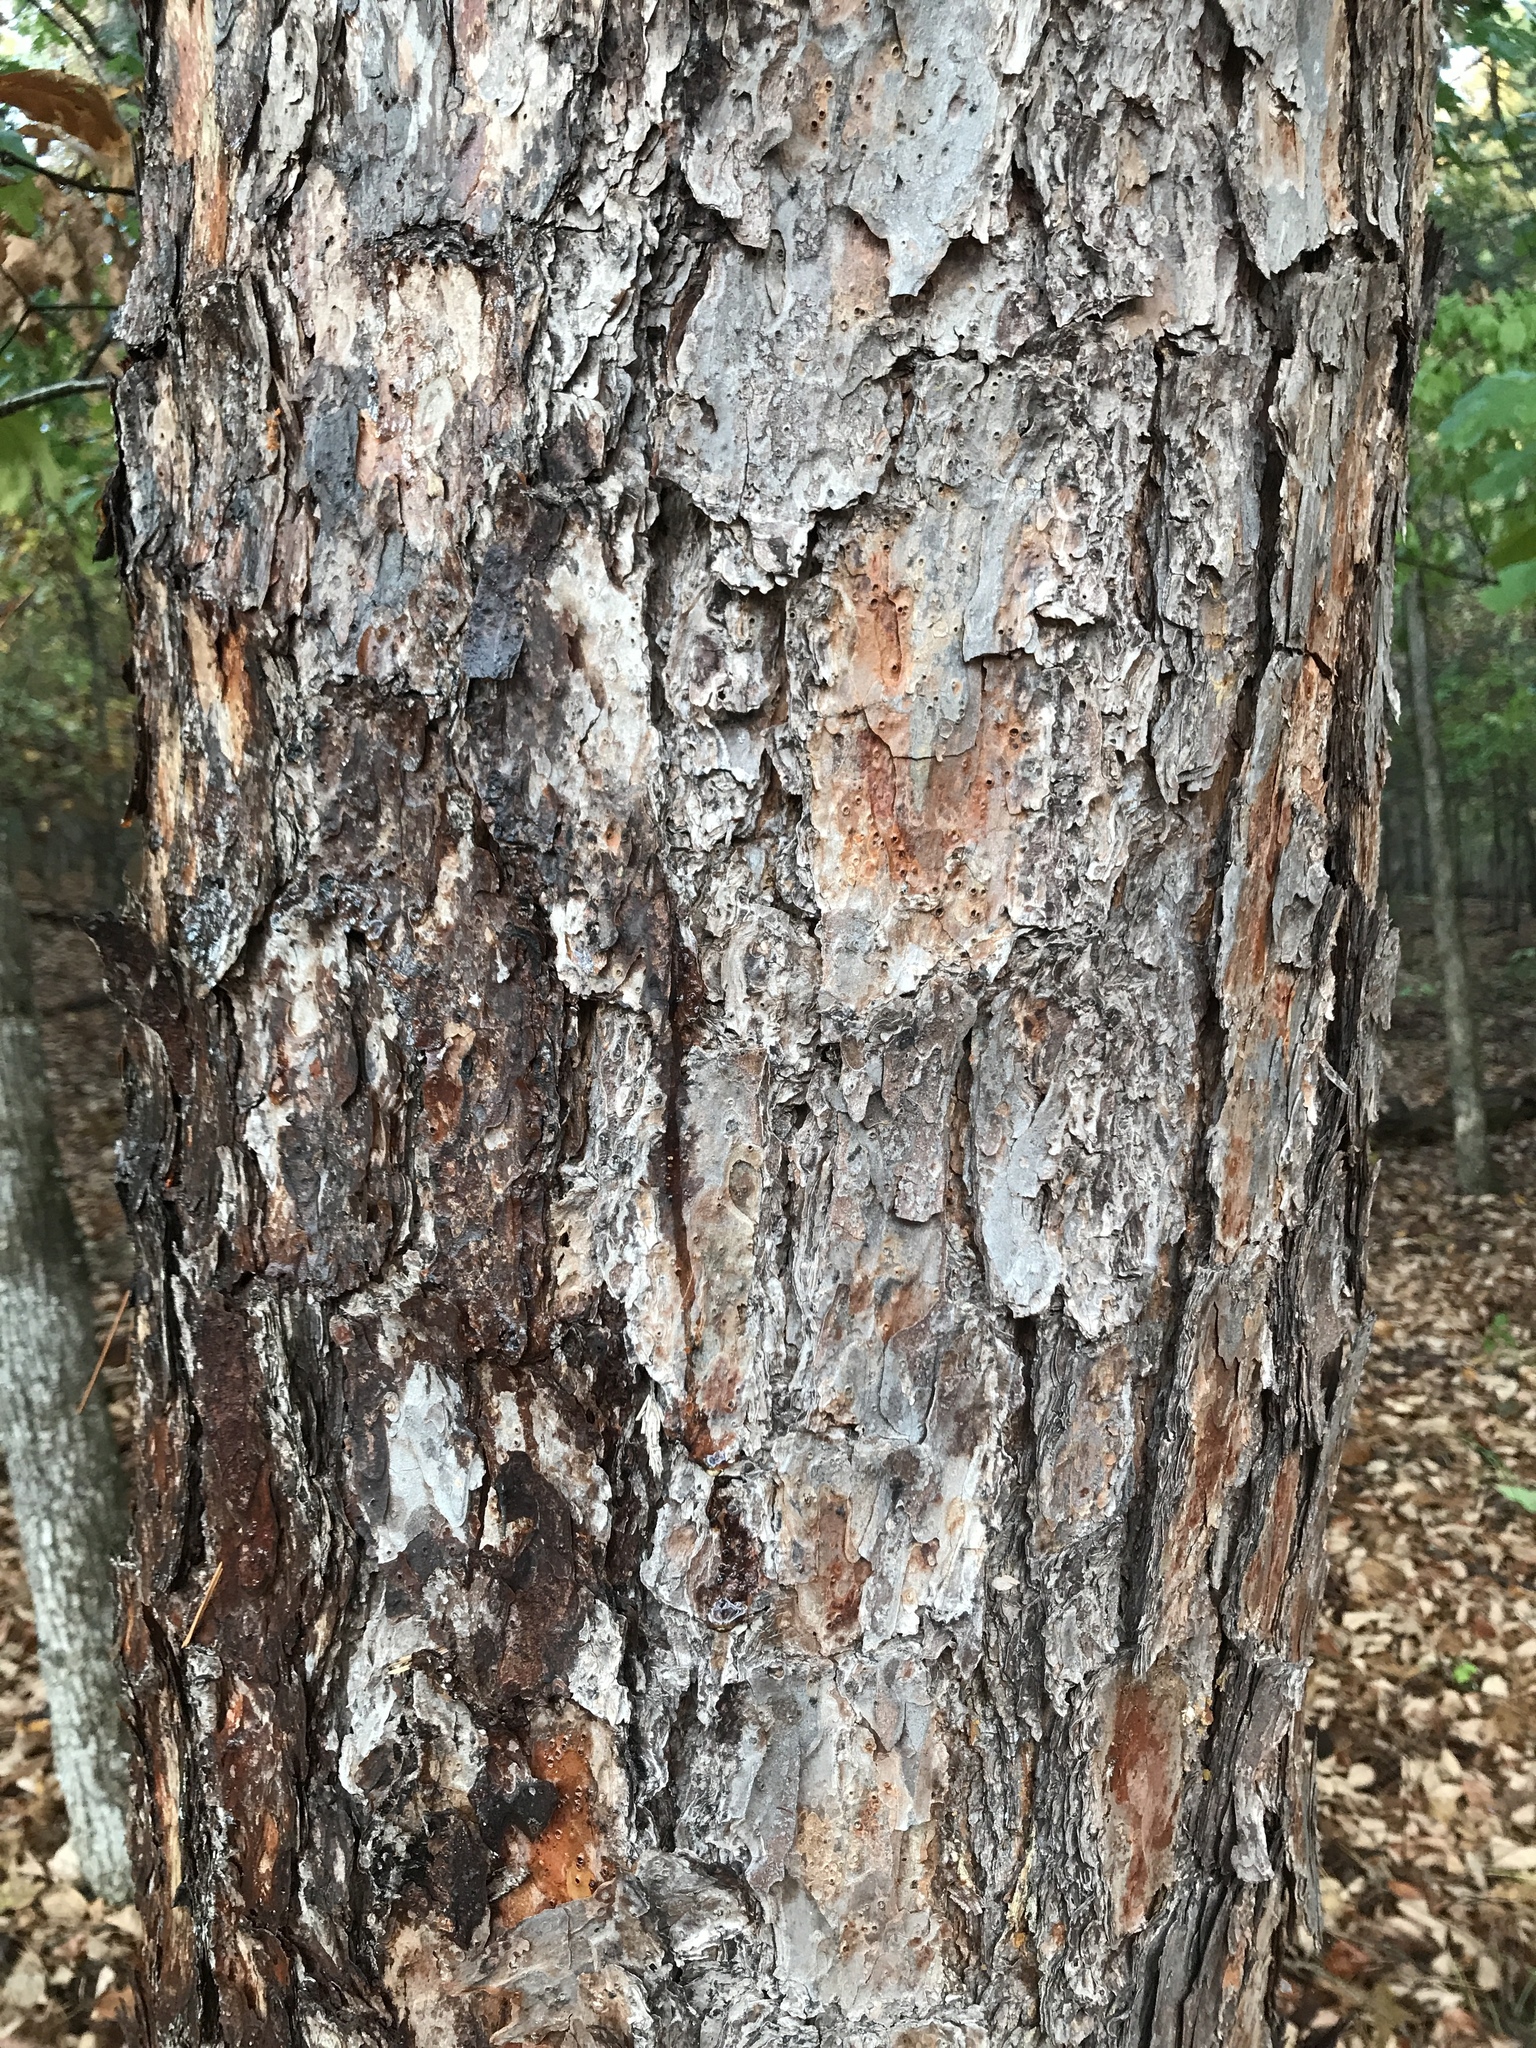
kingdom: Plantae
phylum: Tracheophyta
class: Pinopsida
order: Pinales
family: Pinaceae
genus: Pinus
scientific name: Pinus echinata
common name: Shortleaf pine
